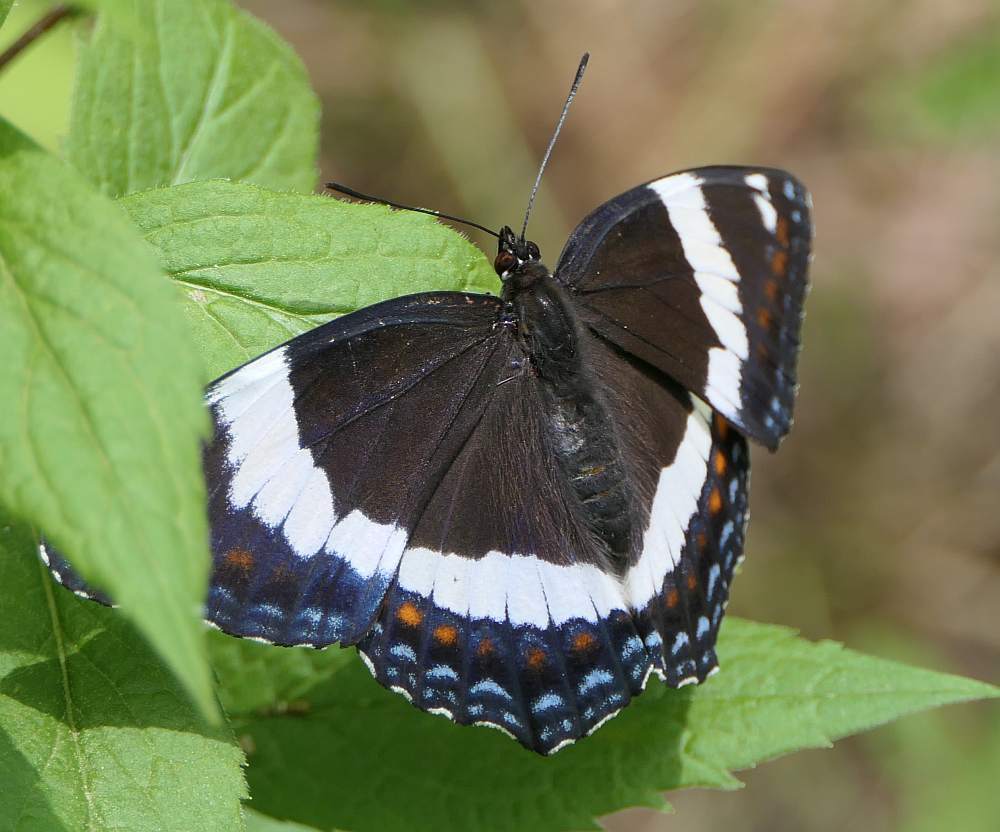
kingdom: Animalia
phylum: Arthropoda
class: Insecta
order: Lepidoptera
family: Nymphalidae
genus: Limenitis
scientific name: Limenitis arthemis
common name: Red-spotted admiral
